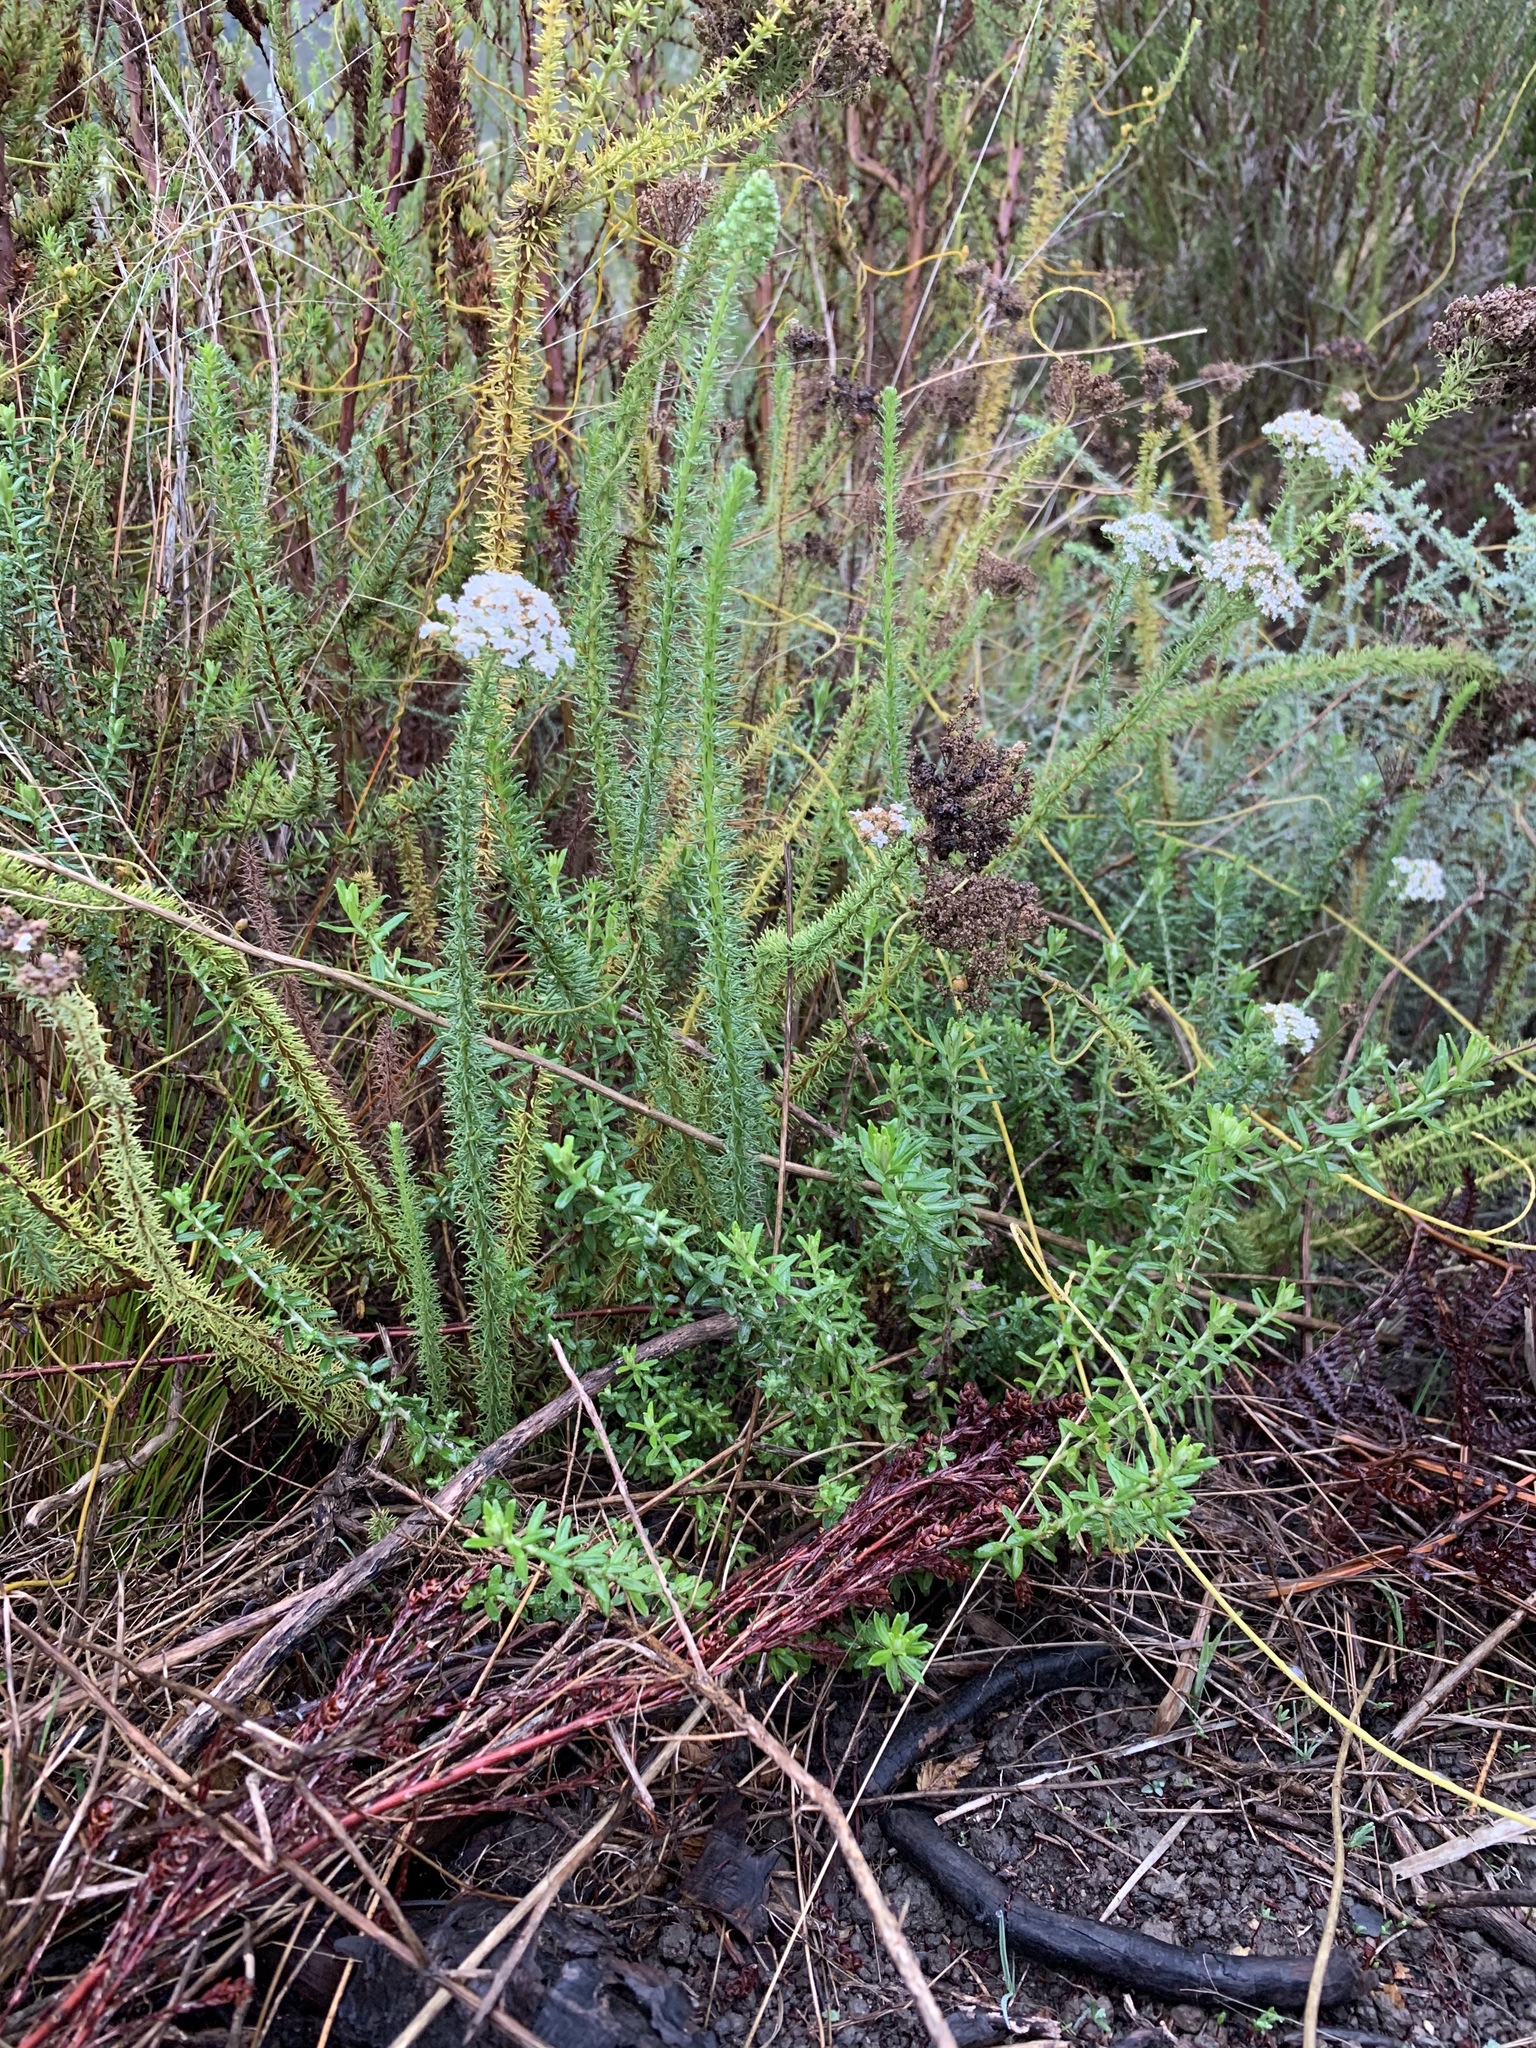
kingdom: Plantae
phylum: Tracheophyta
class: Magnoliopsida
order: Lamiales
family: Scrophulariaceae
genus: Selago
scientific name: Selago corymbosa
